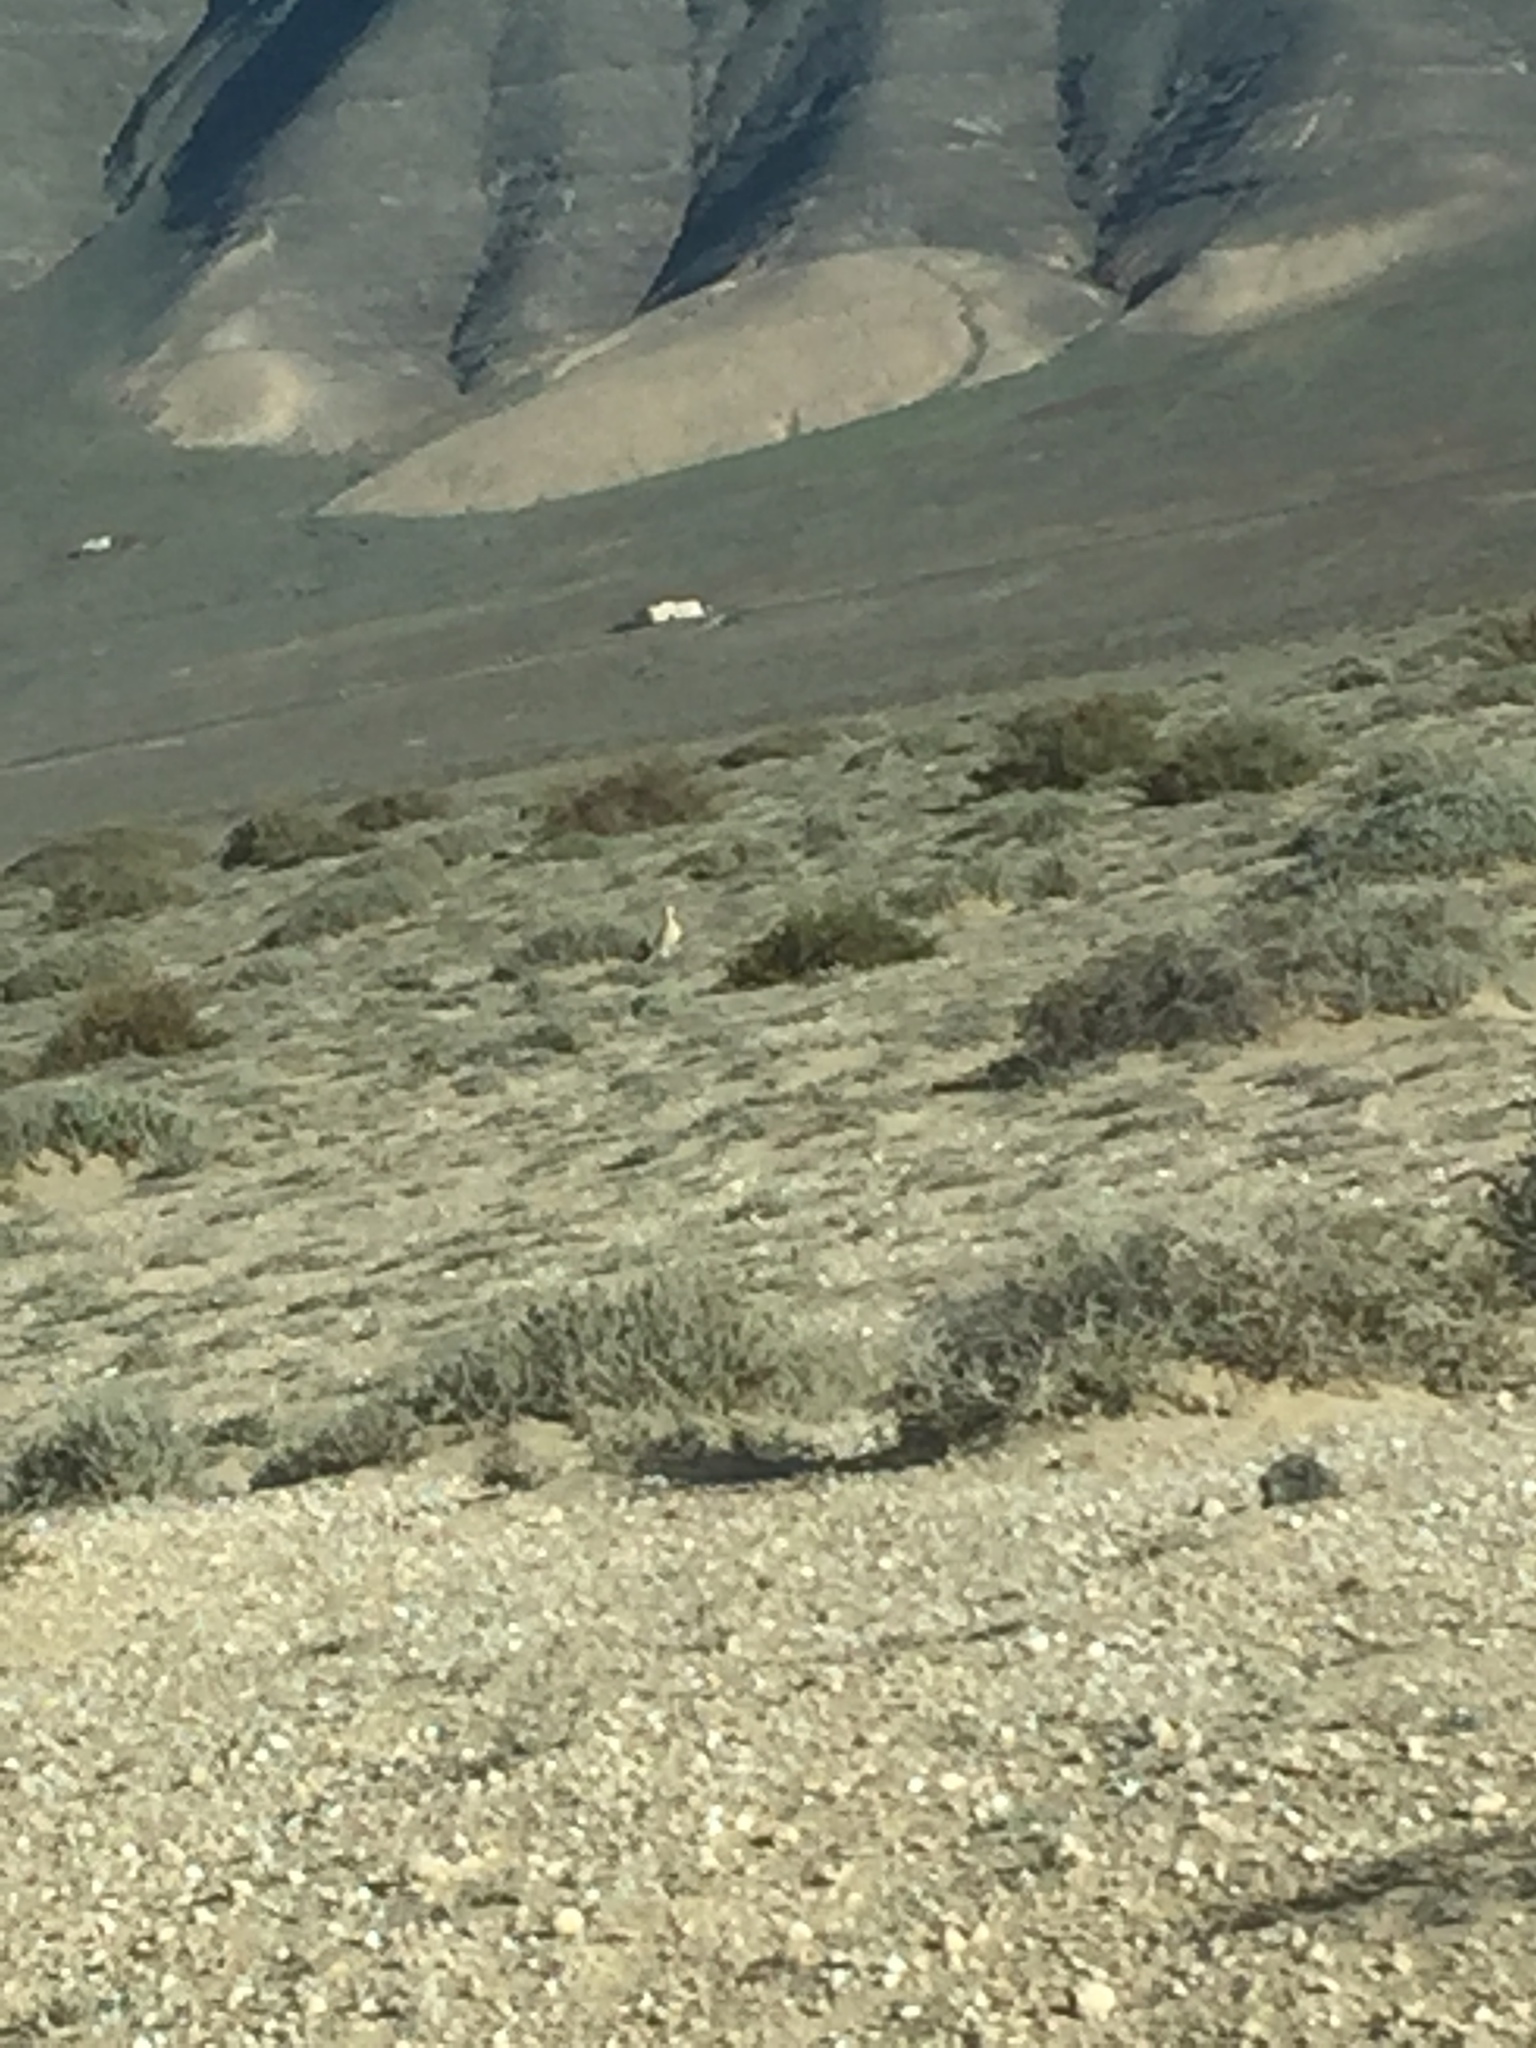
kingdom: Animalia
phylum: Chordata
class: Aves
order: Charadriiformes
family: Glareolidae
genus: Cursorius
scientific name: Cursorius cursor
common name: Cream-colored courser
